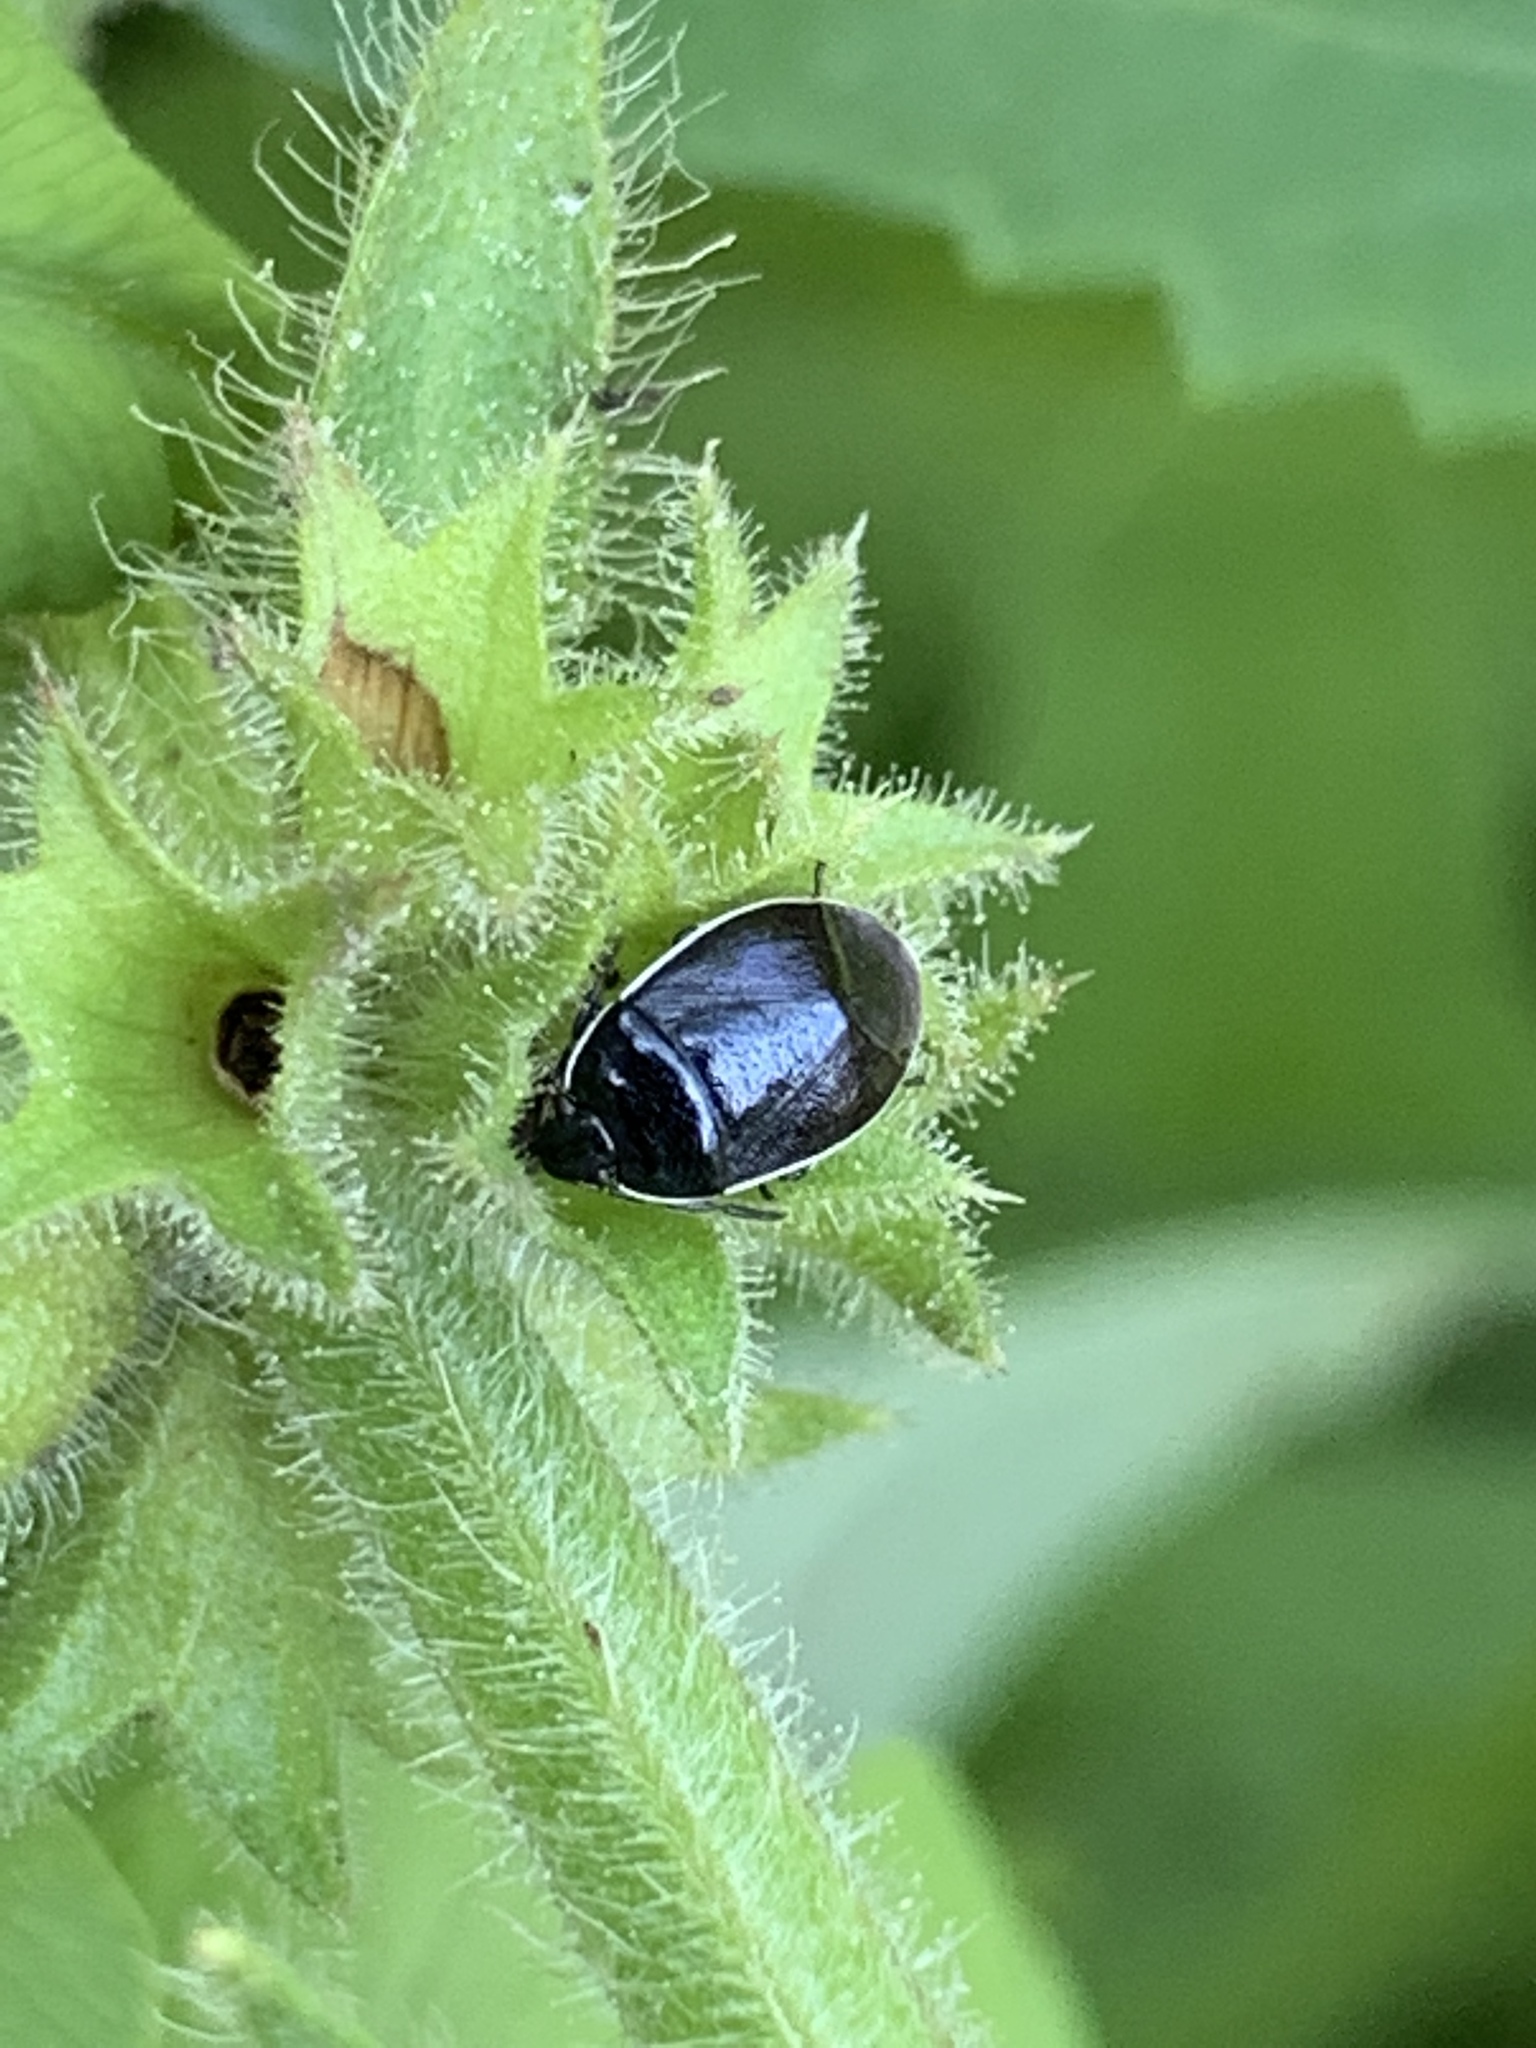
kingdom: Animalia
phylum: Arthropoda
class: Insecta
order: Hemiptera
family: Cydnidae
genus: Sehirus
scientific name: Sehirus cinctus
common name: White-margined burrower bug
